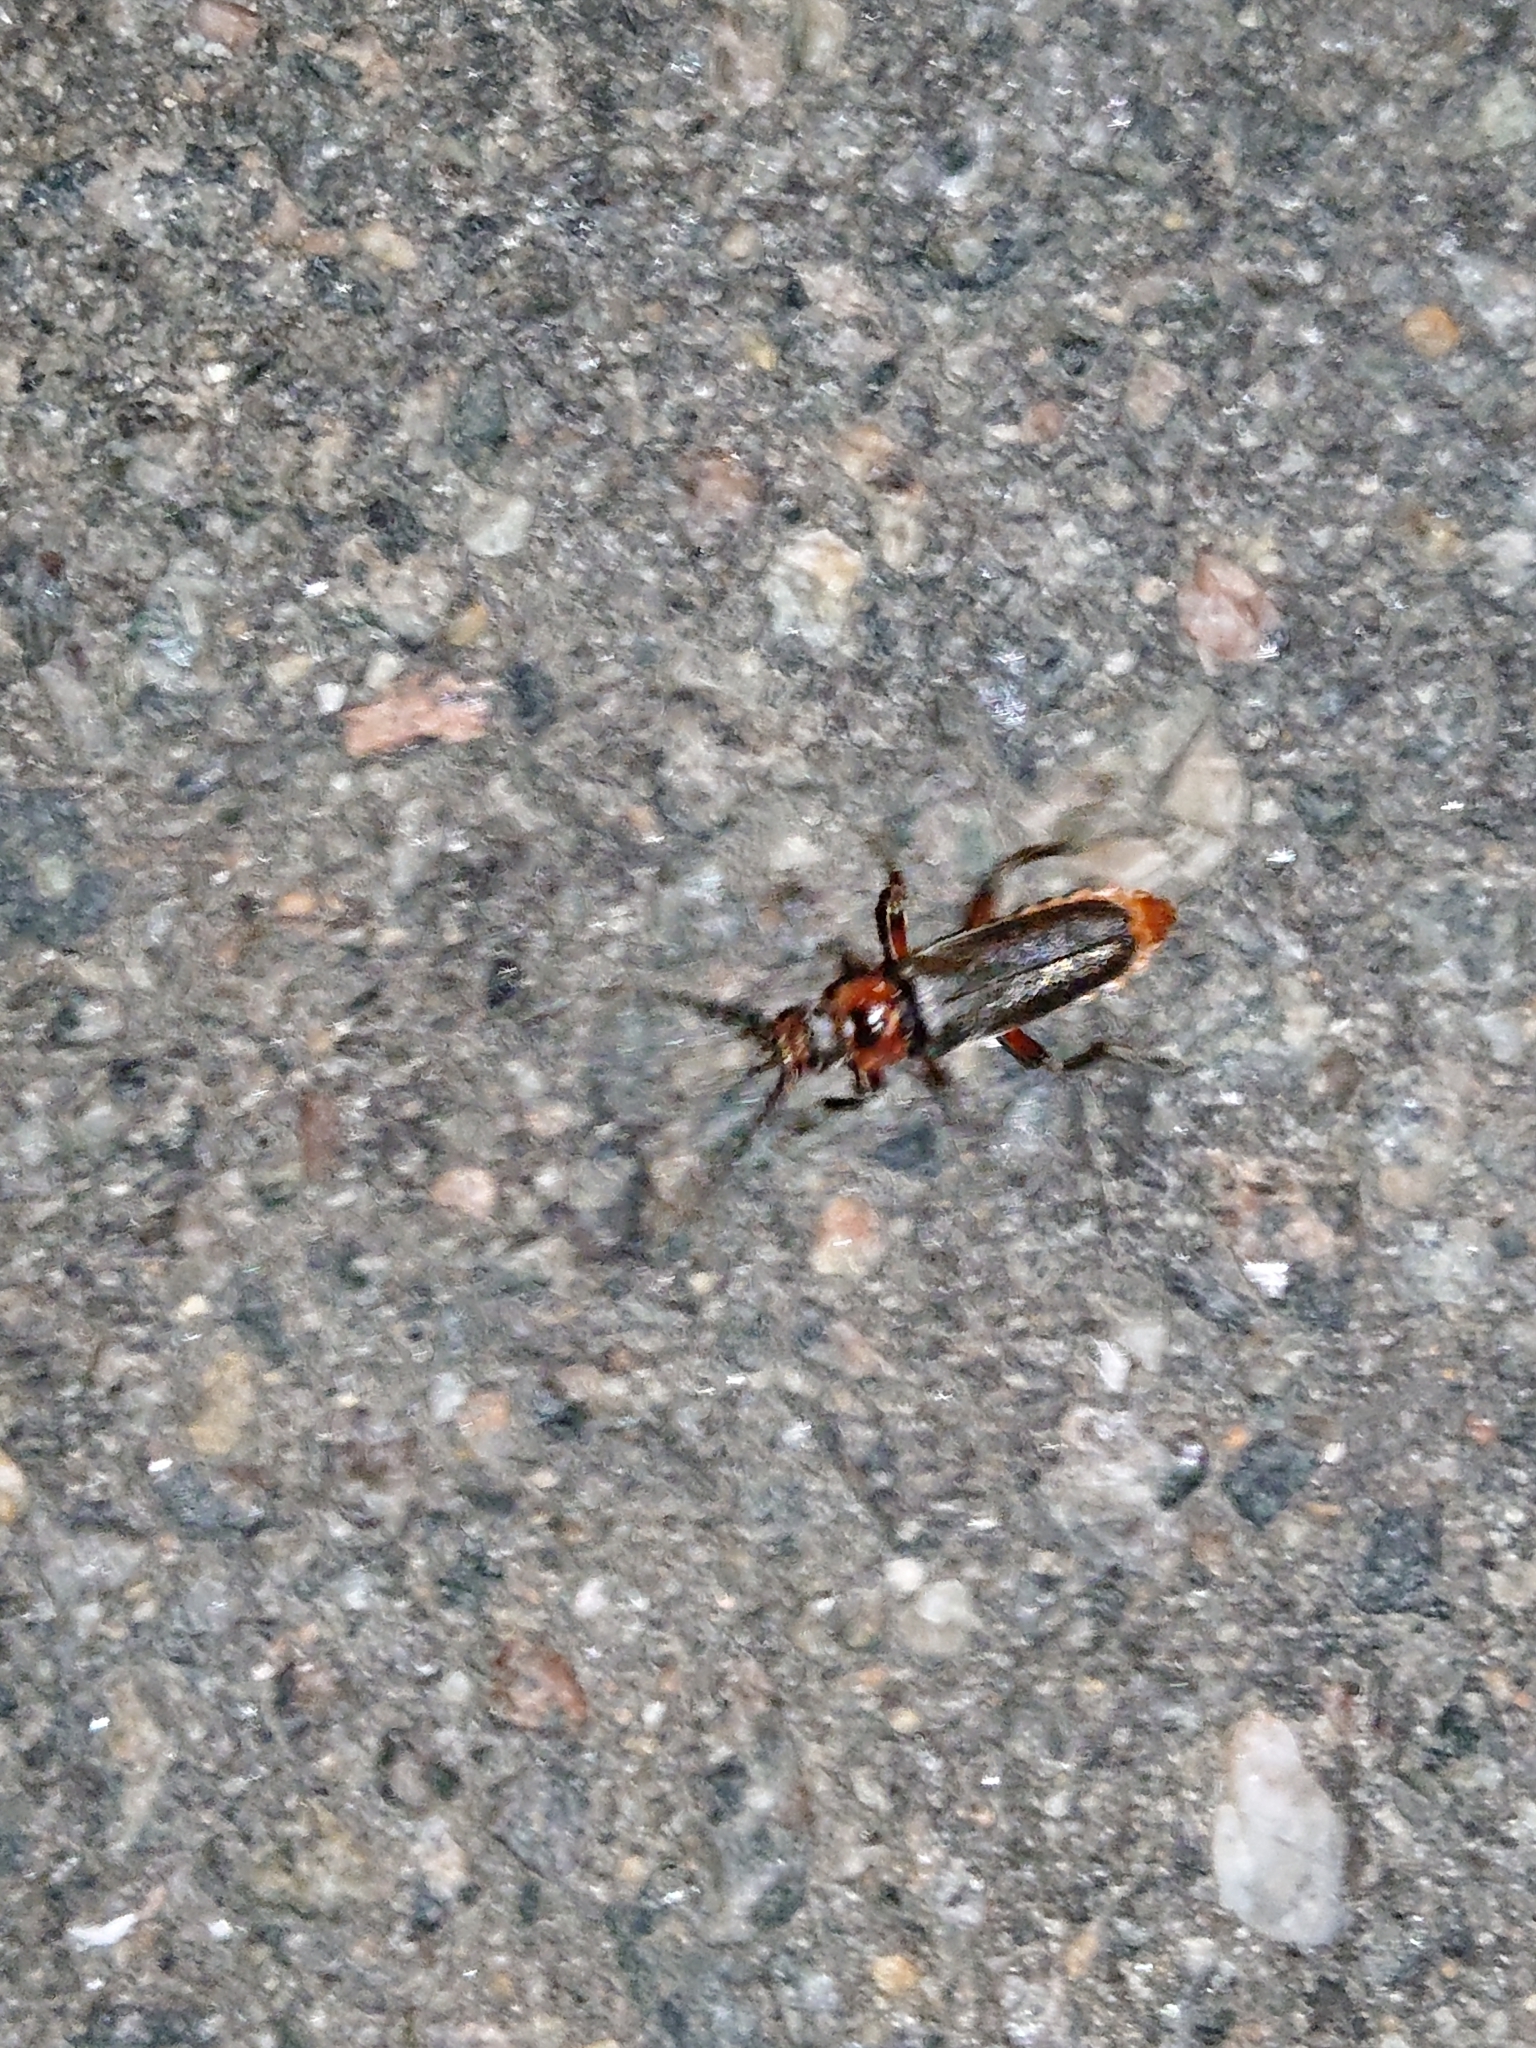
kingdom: Animalia
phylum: Arthropoda
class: Insecta
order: Coleoptera
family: Cantharidae
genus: Cantharis
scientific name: Cantharis rustica
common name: Soldier beetle
